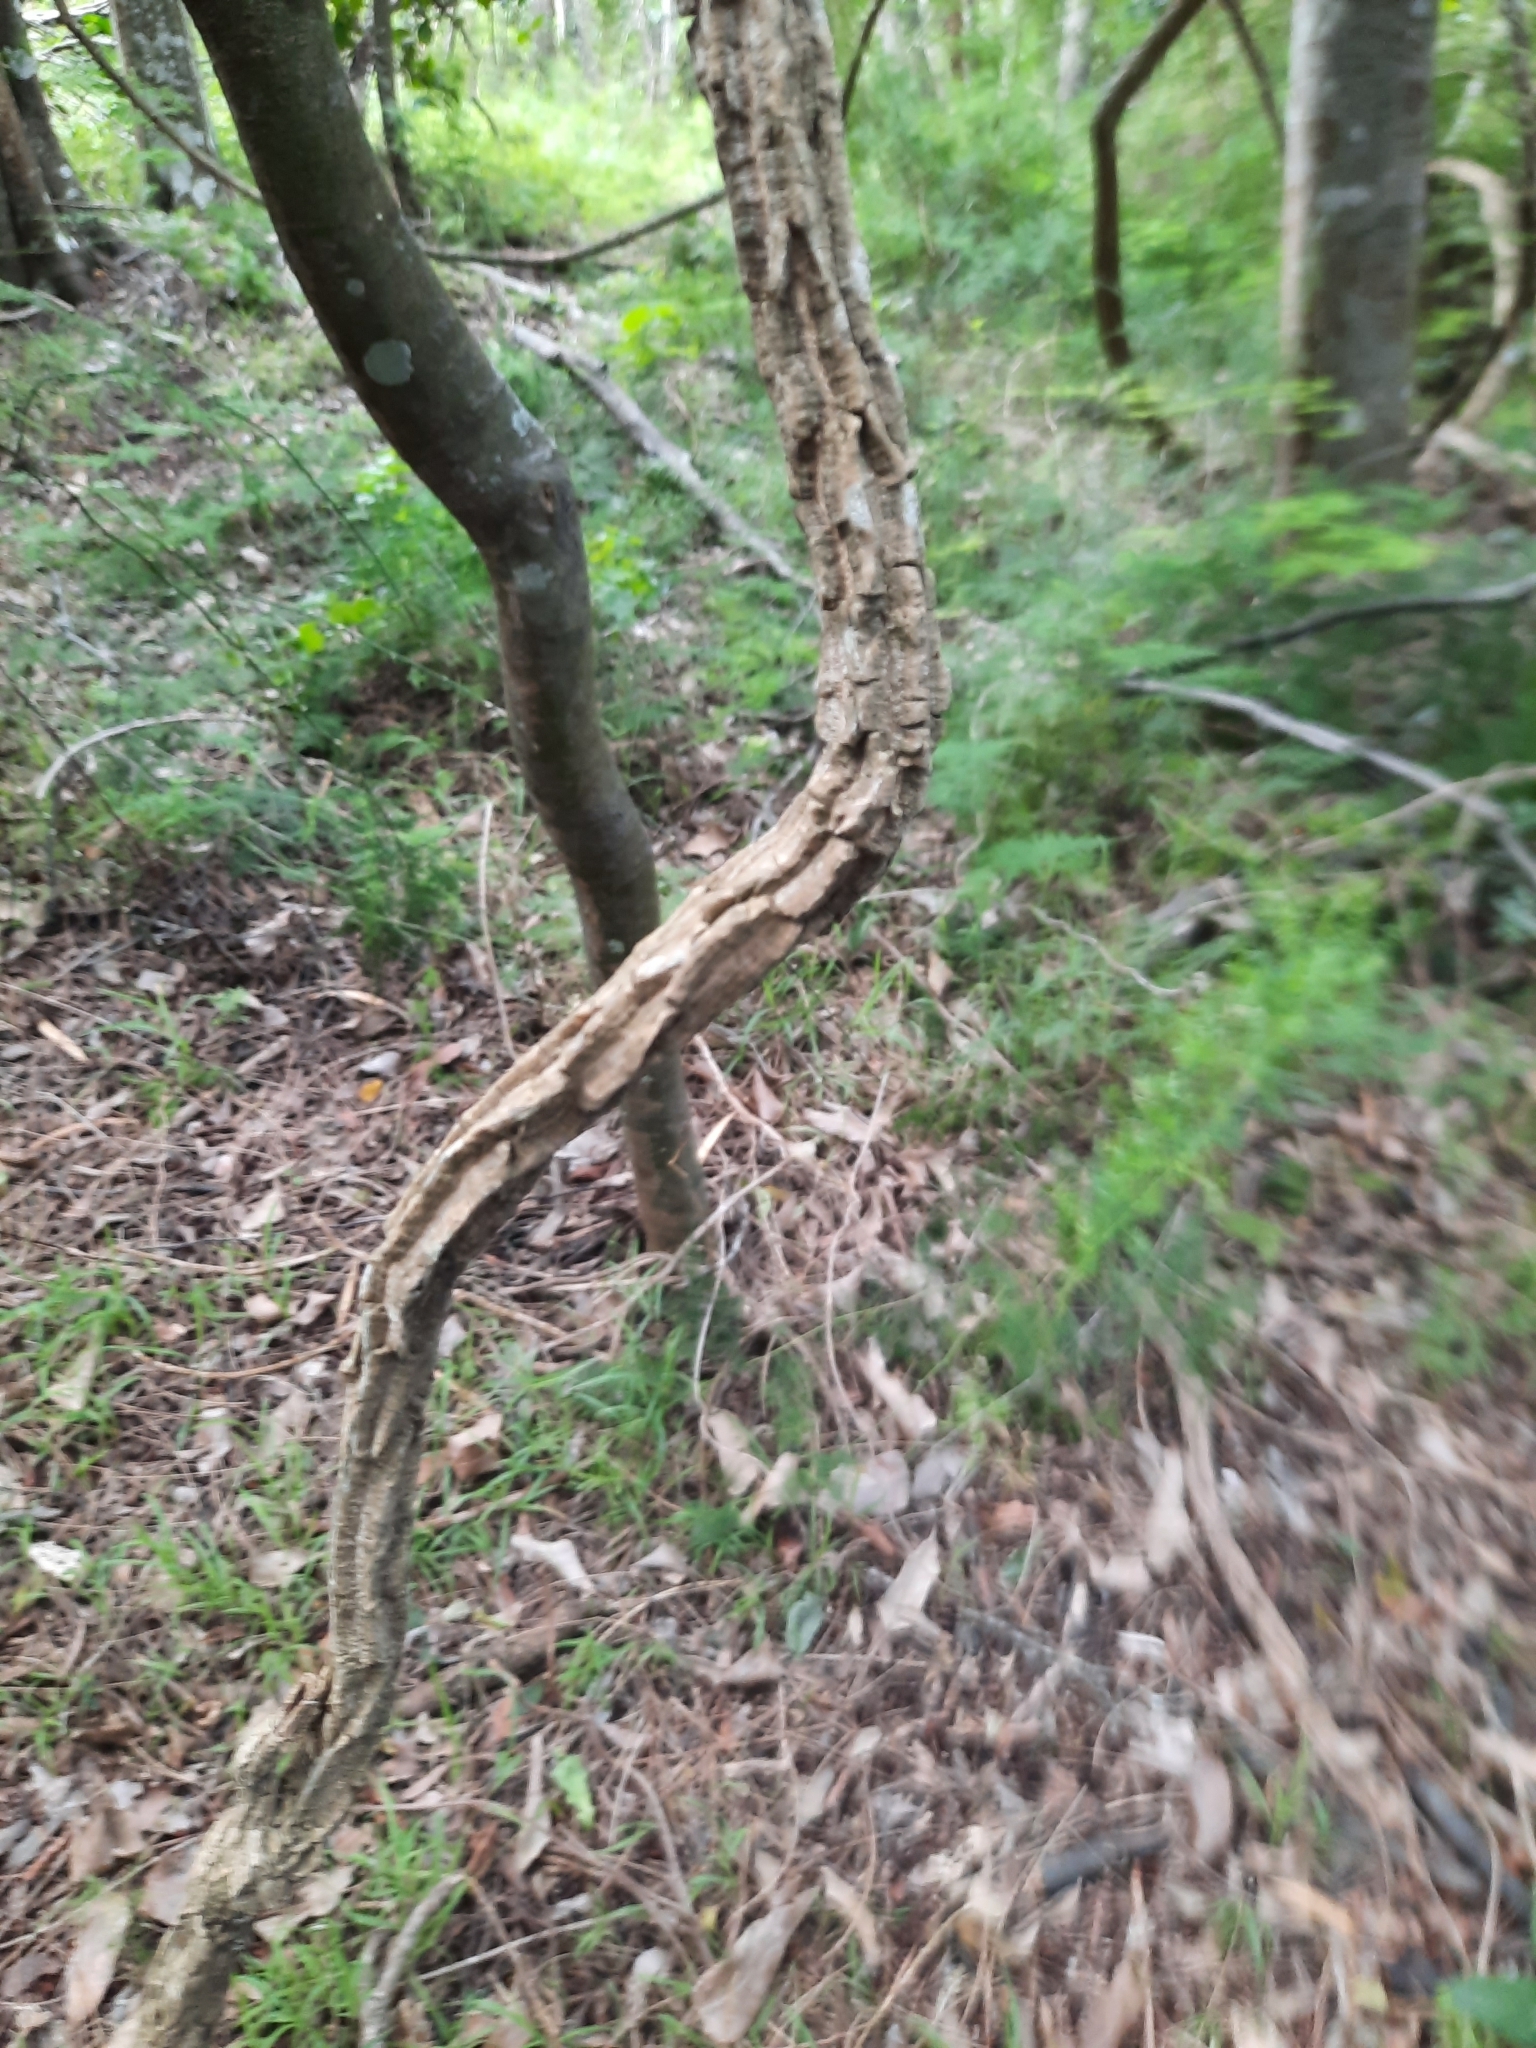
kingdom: Plantae
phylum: Tracheophyta
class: Magnoliopsida
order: Gentianales
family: Apocynaceae
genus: Vincetoxicum
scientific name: Vincetoxicum elegans
